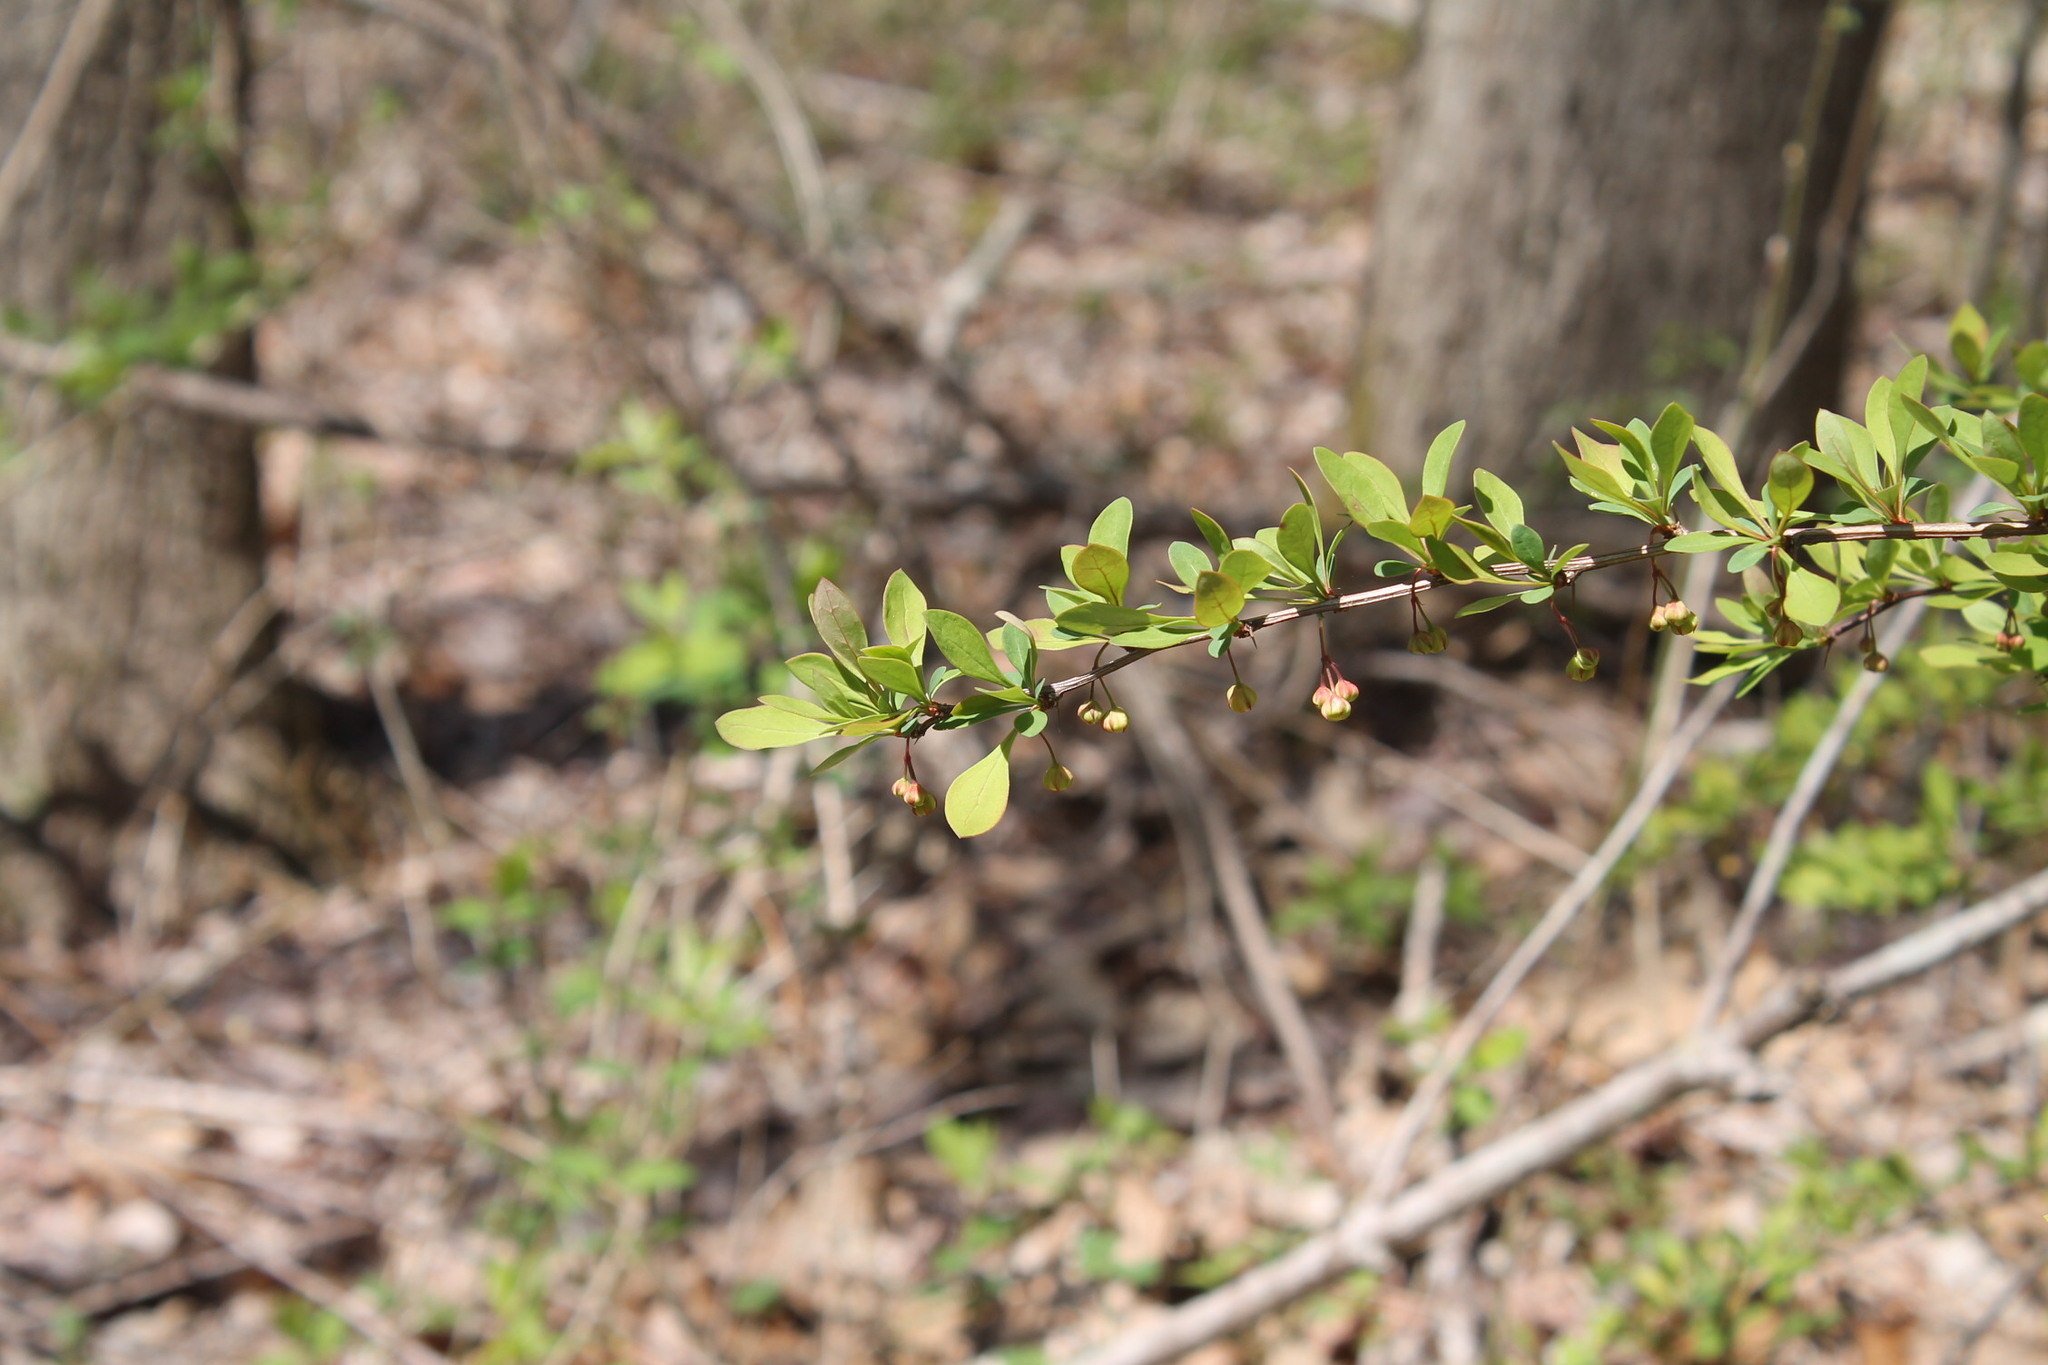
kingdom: Plantae
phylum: Tracheophyta
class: Magnoliopsida
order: Ranunculales
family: Berberidaceae
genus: Berberis
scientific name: Berberis thunbergii
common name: Japanese barberry
